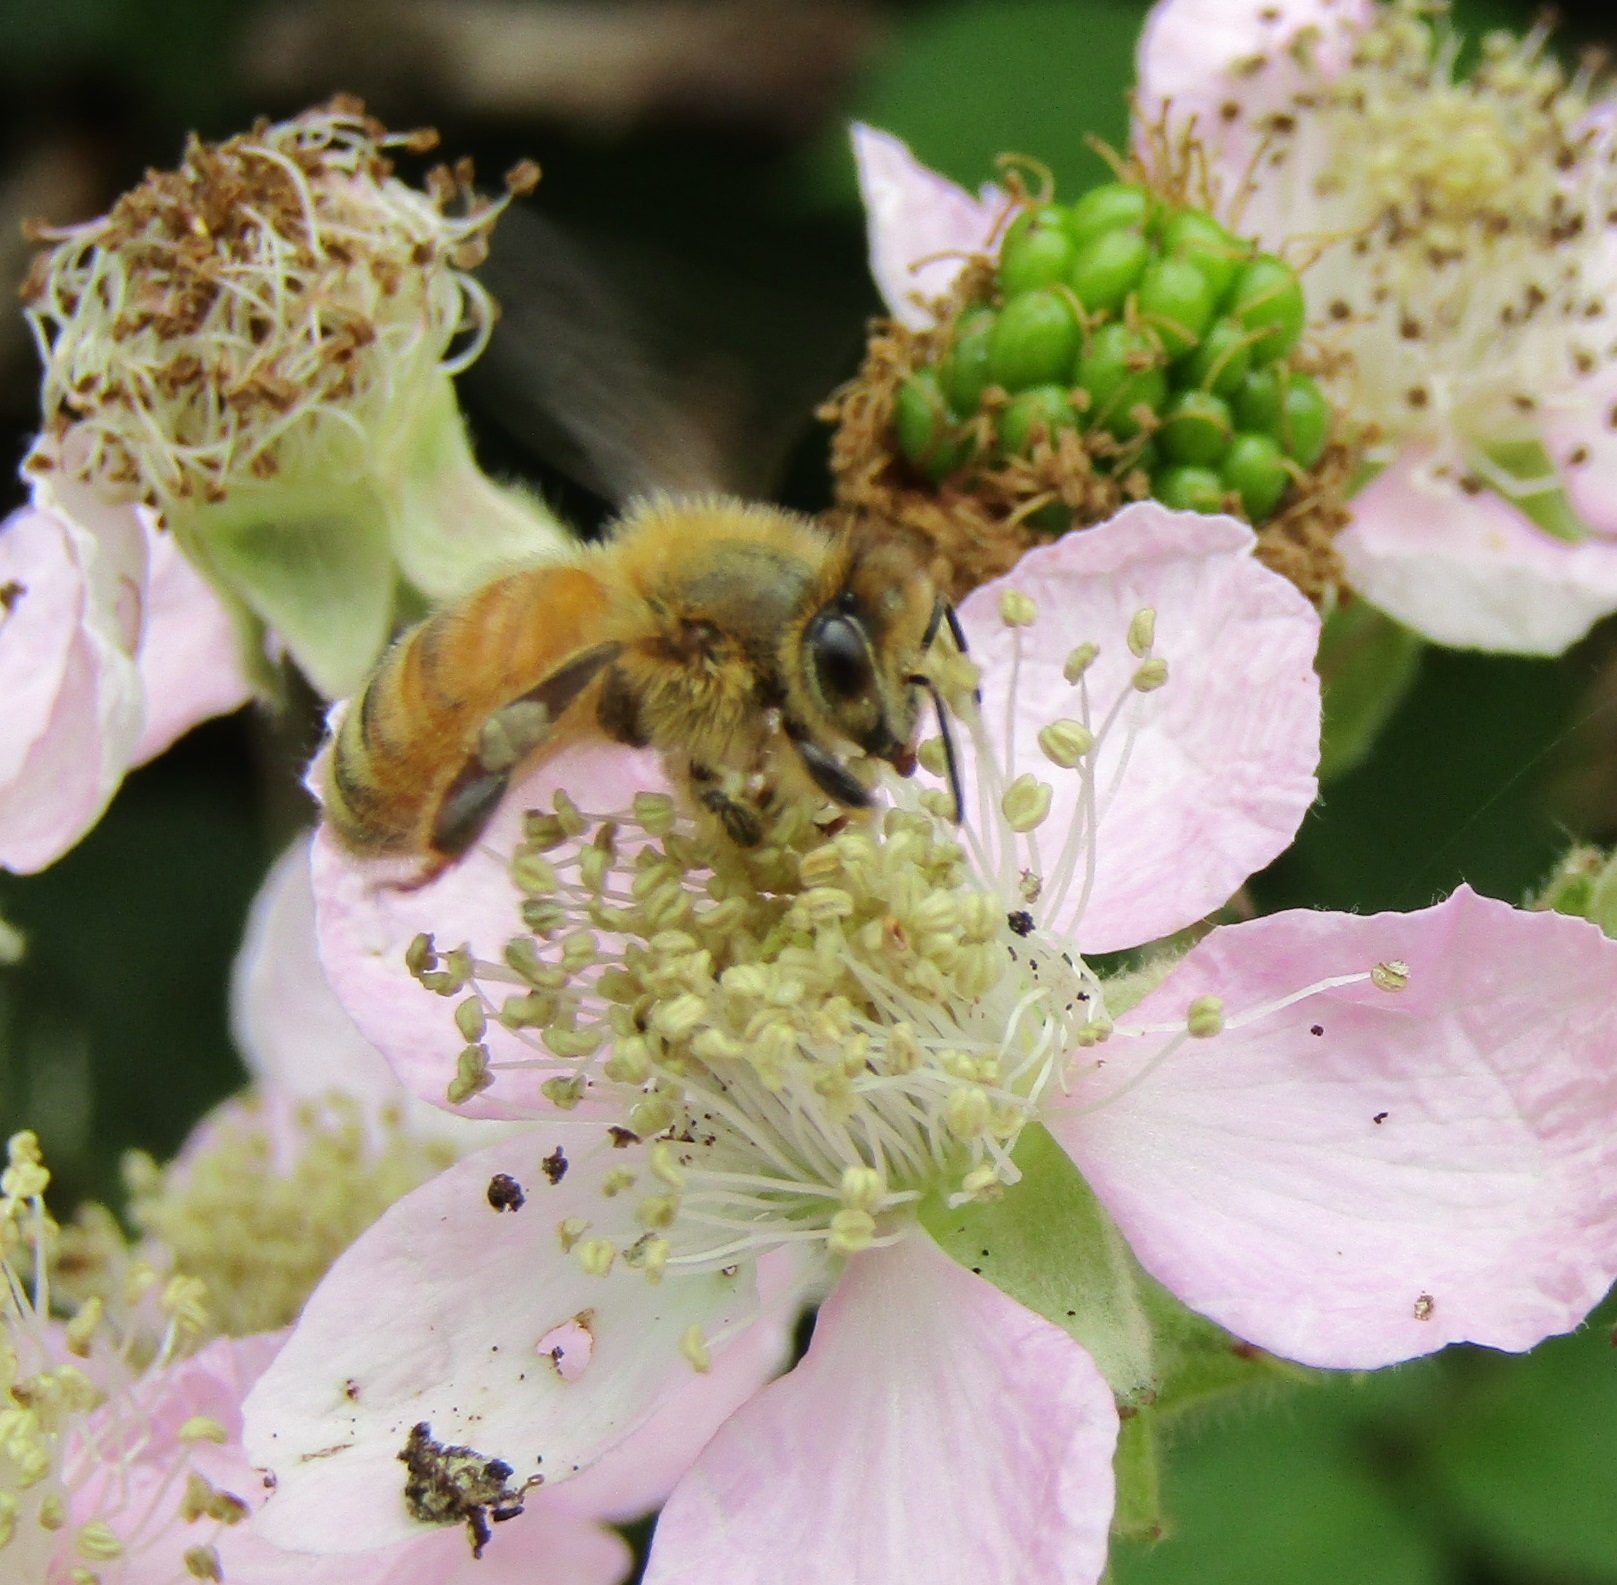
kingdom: Animalia
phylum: Arthropoda
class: Insecta
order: Hymenoptera
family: Apidae
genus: Apis
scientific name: Apis mellifera
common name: Honey bee
